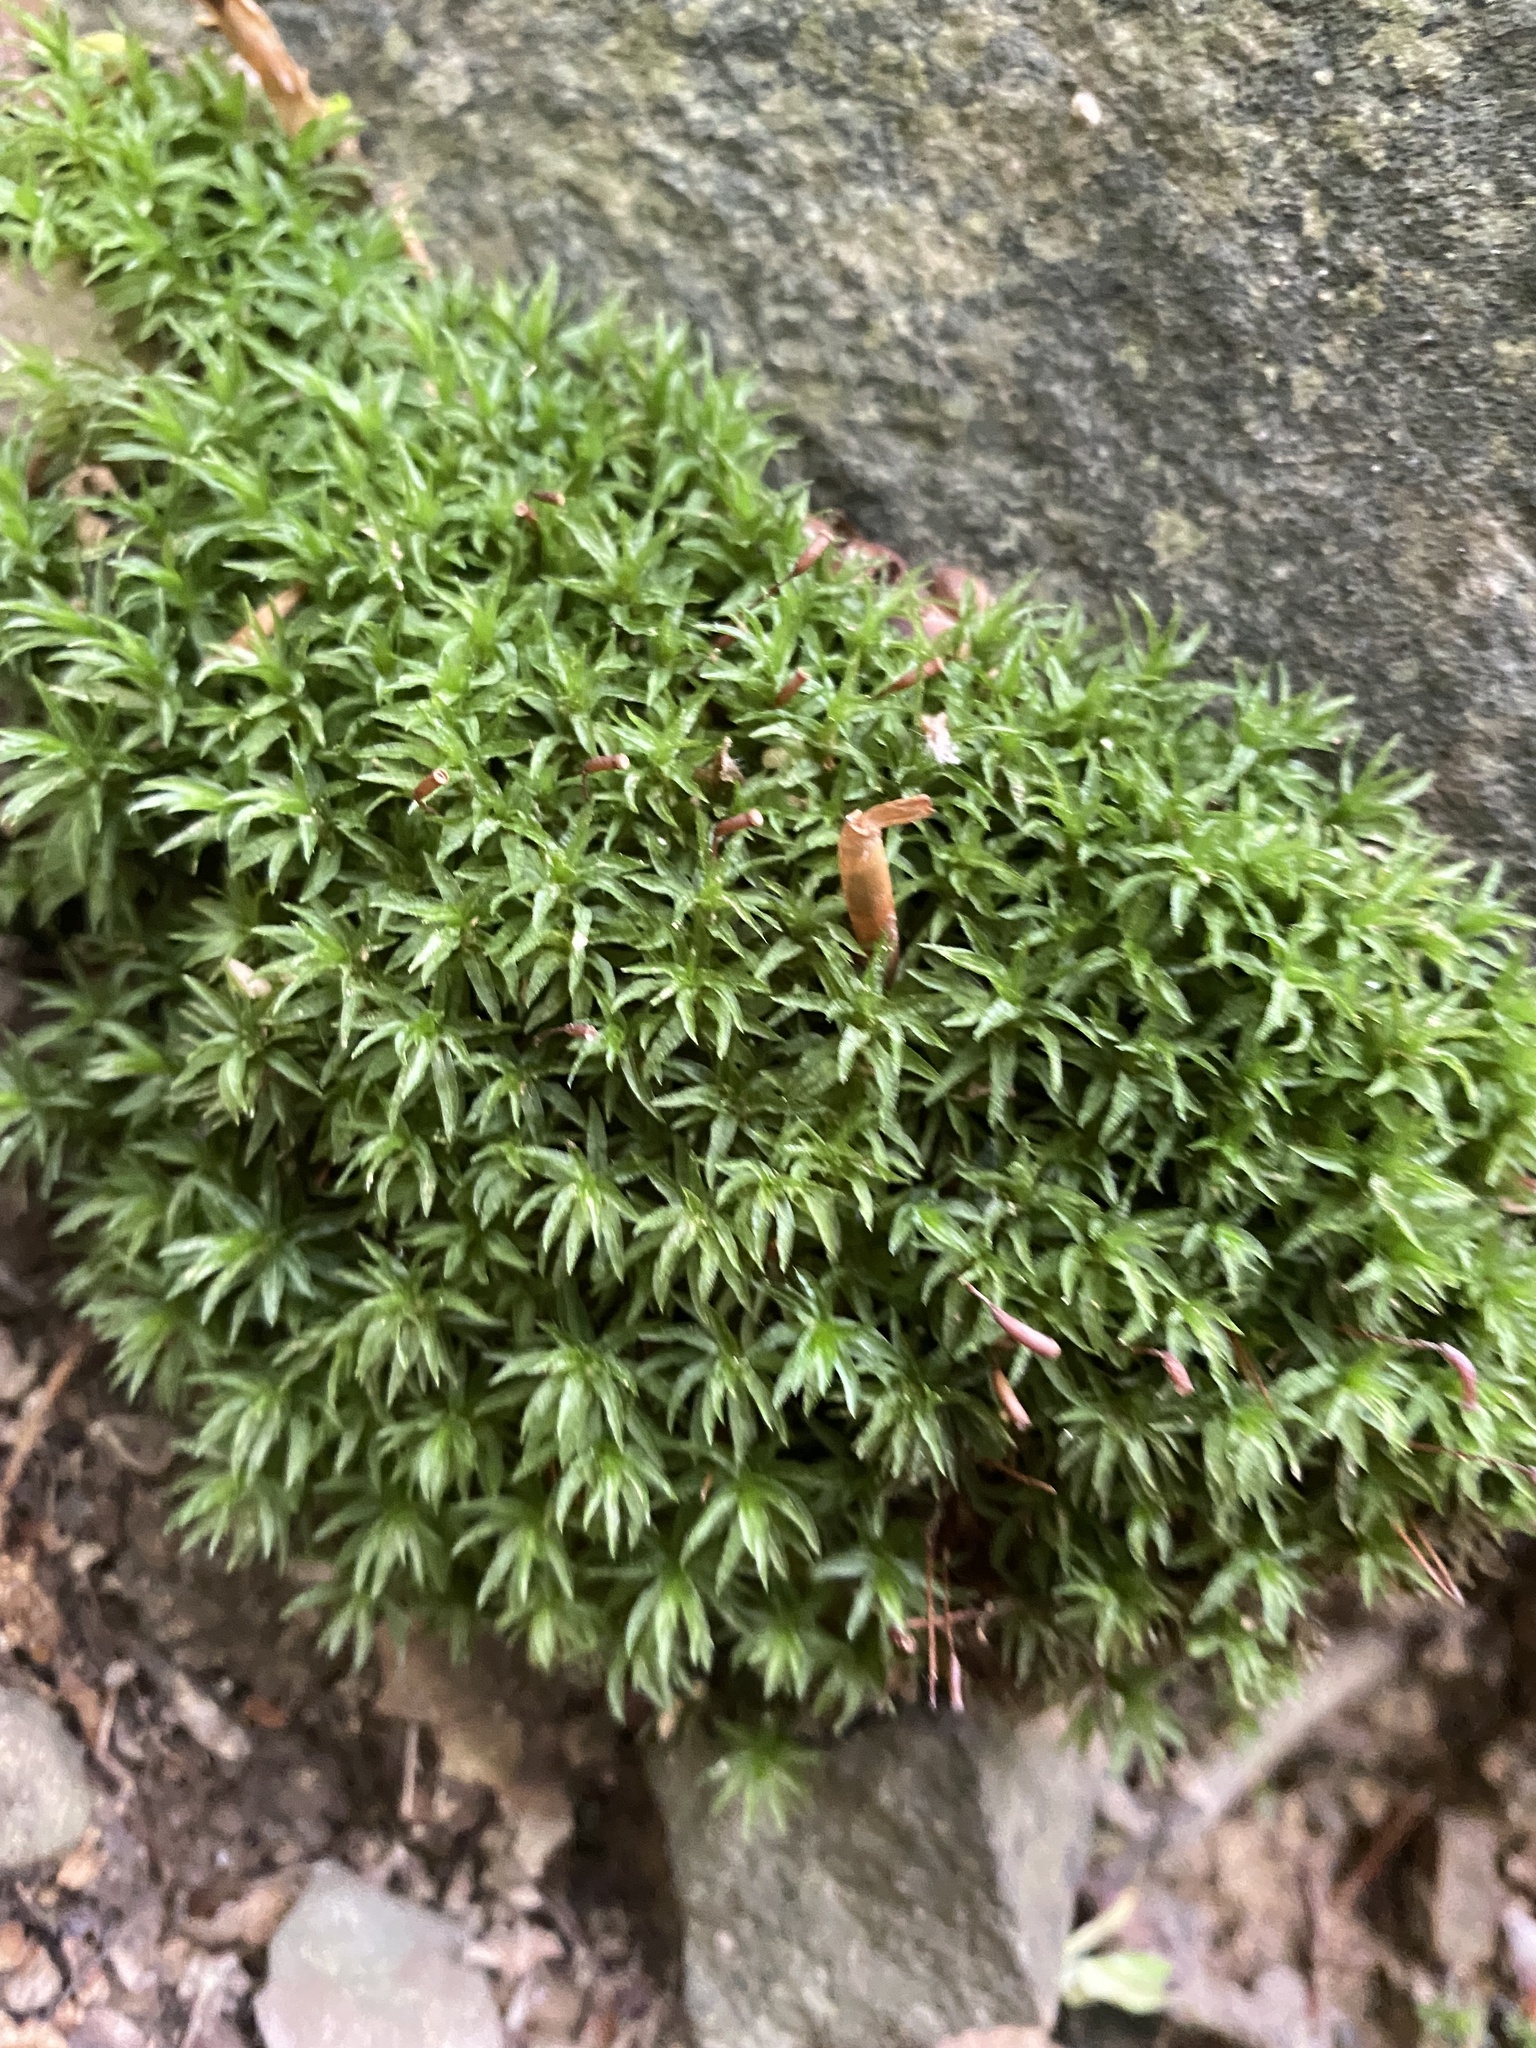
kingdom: Plantae
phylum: Bryophyta
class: Polytrichopsida
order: Polytrichales
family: Polytrichaceae
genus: Atrichum
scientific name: Atrichum undulatum
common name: Common smoothcap
